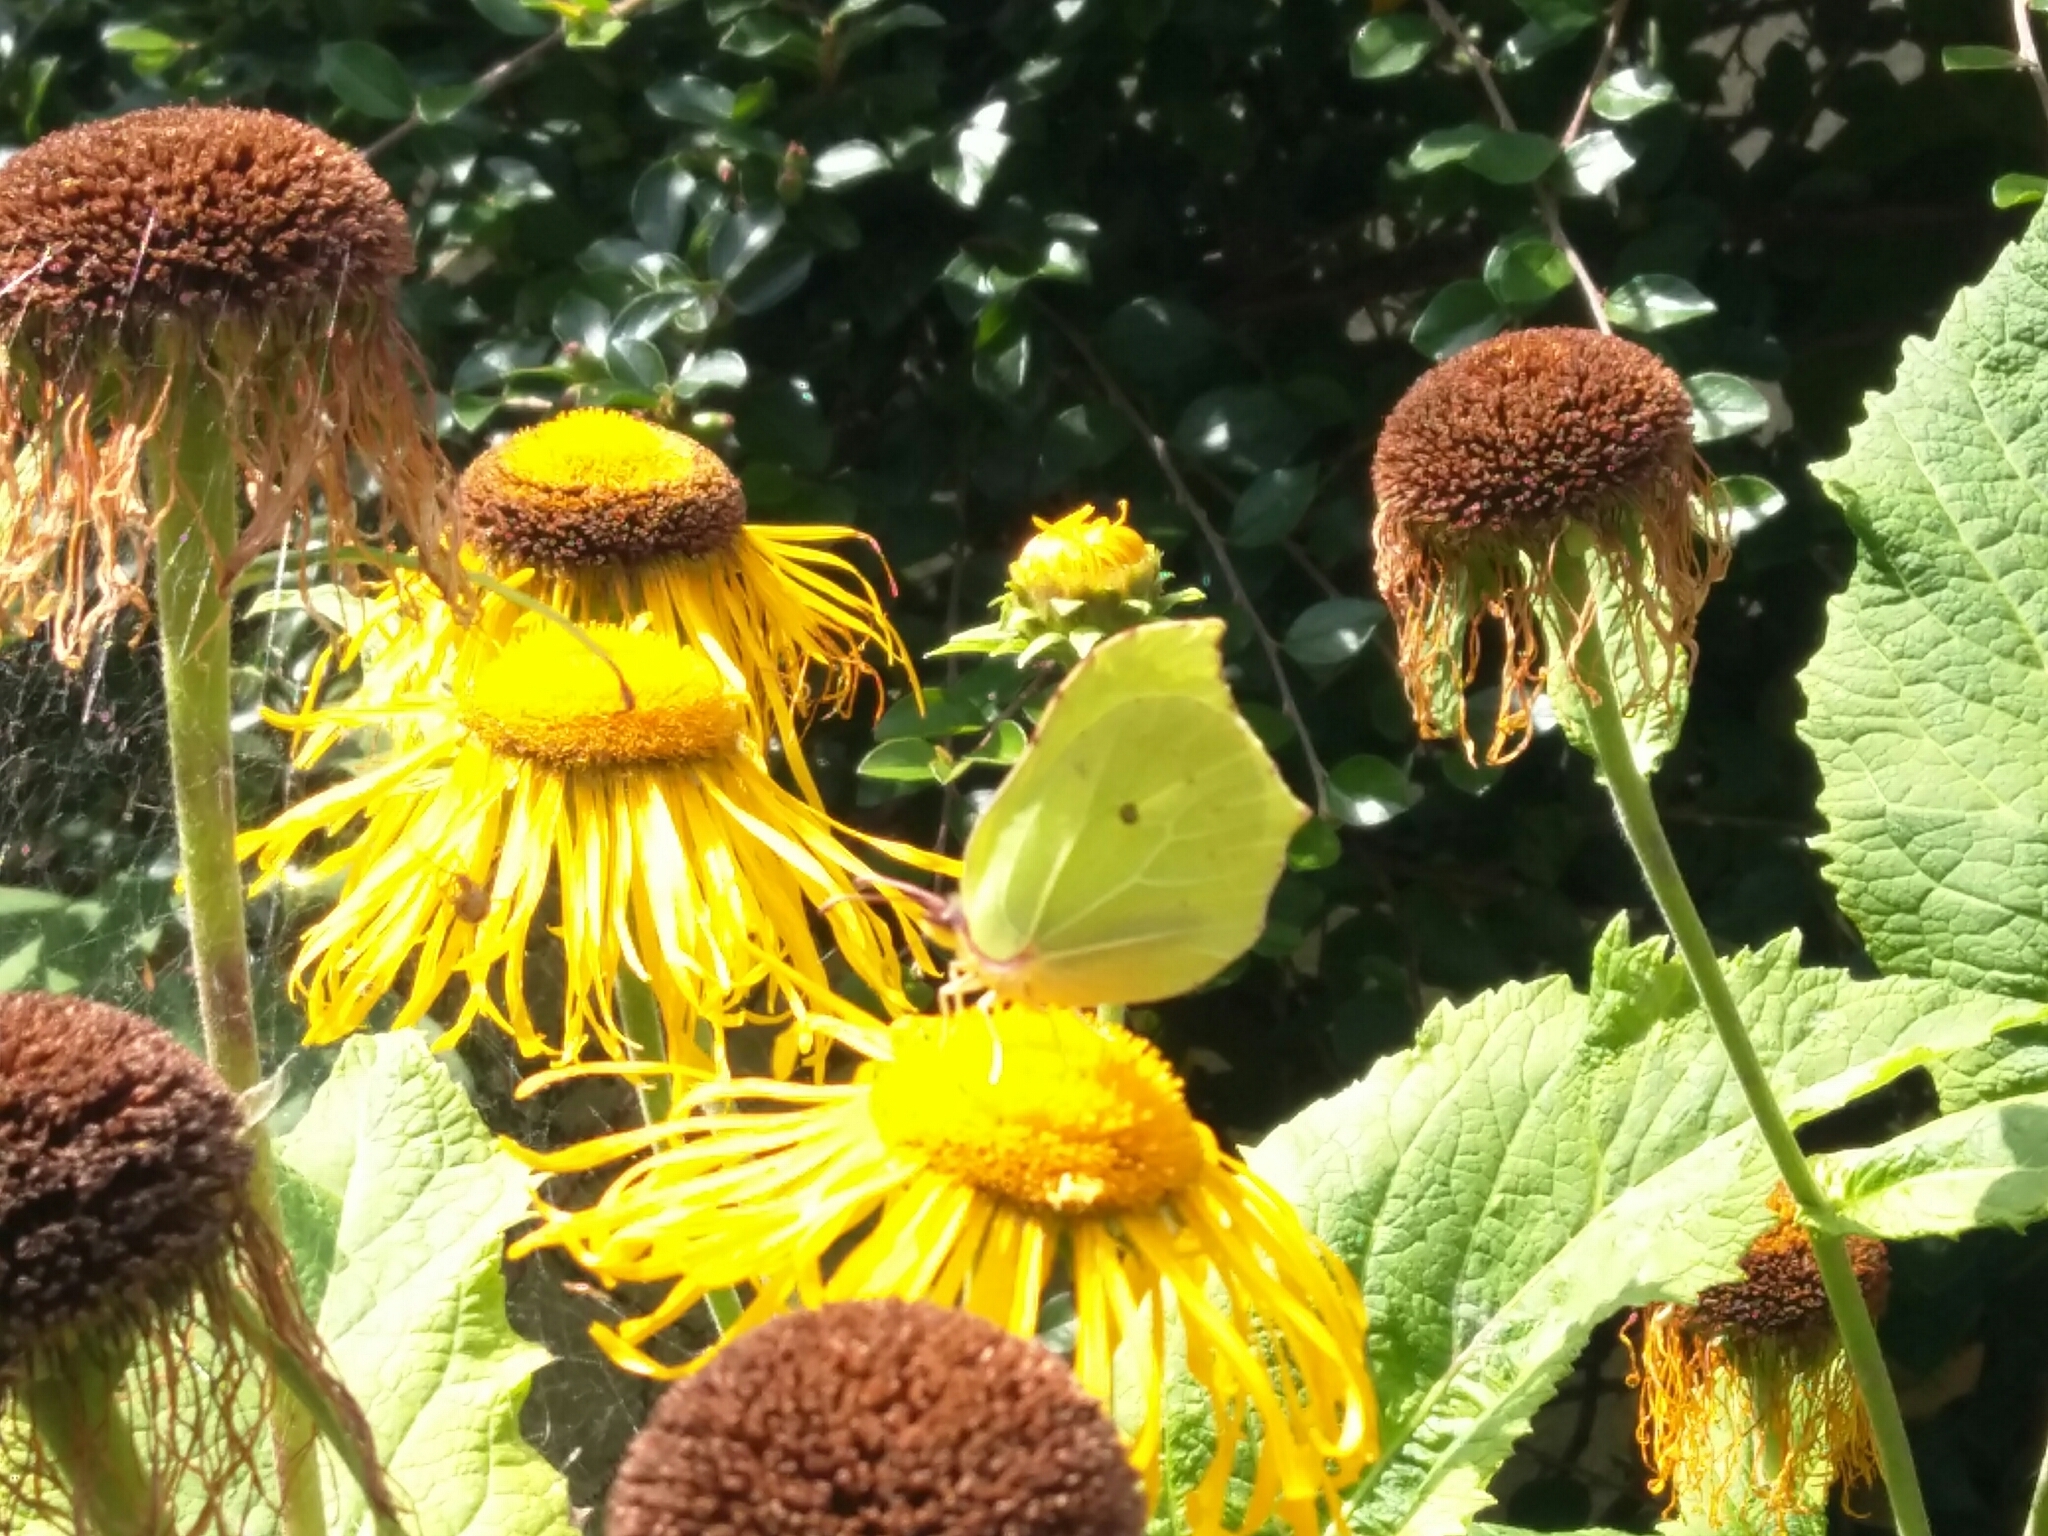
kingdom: Animalia
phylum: Arthropoda
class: Insecta
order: Lepidoptera
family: Pieridae
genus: Gonepteryx
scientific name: Gonepteryx rhamni
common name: Brimstone
